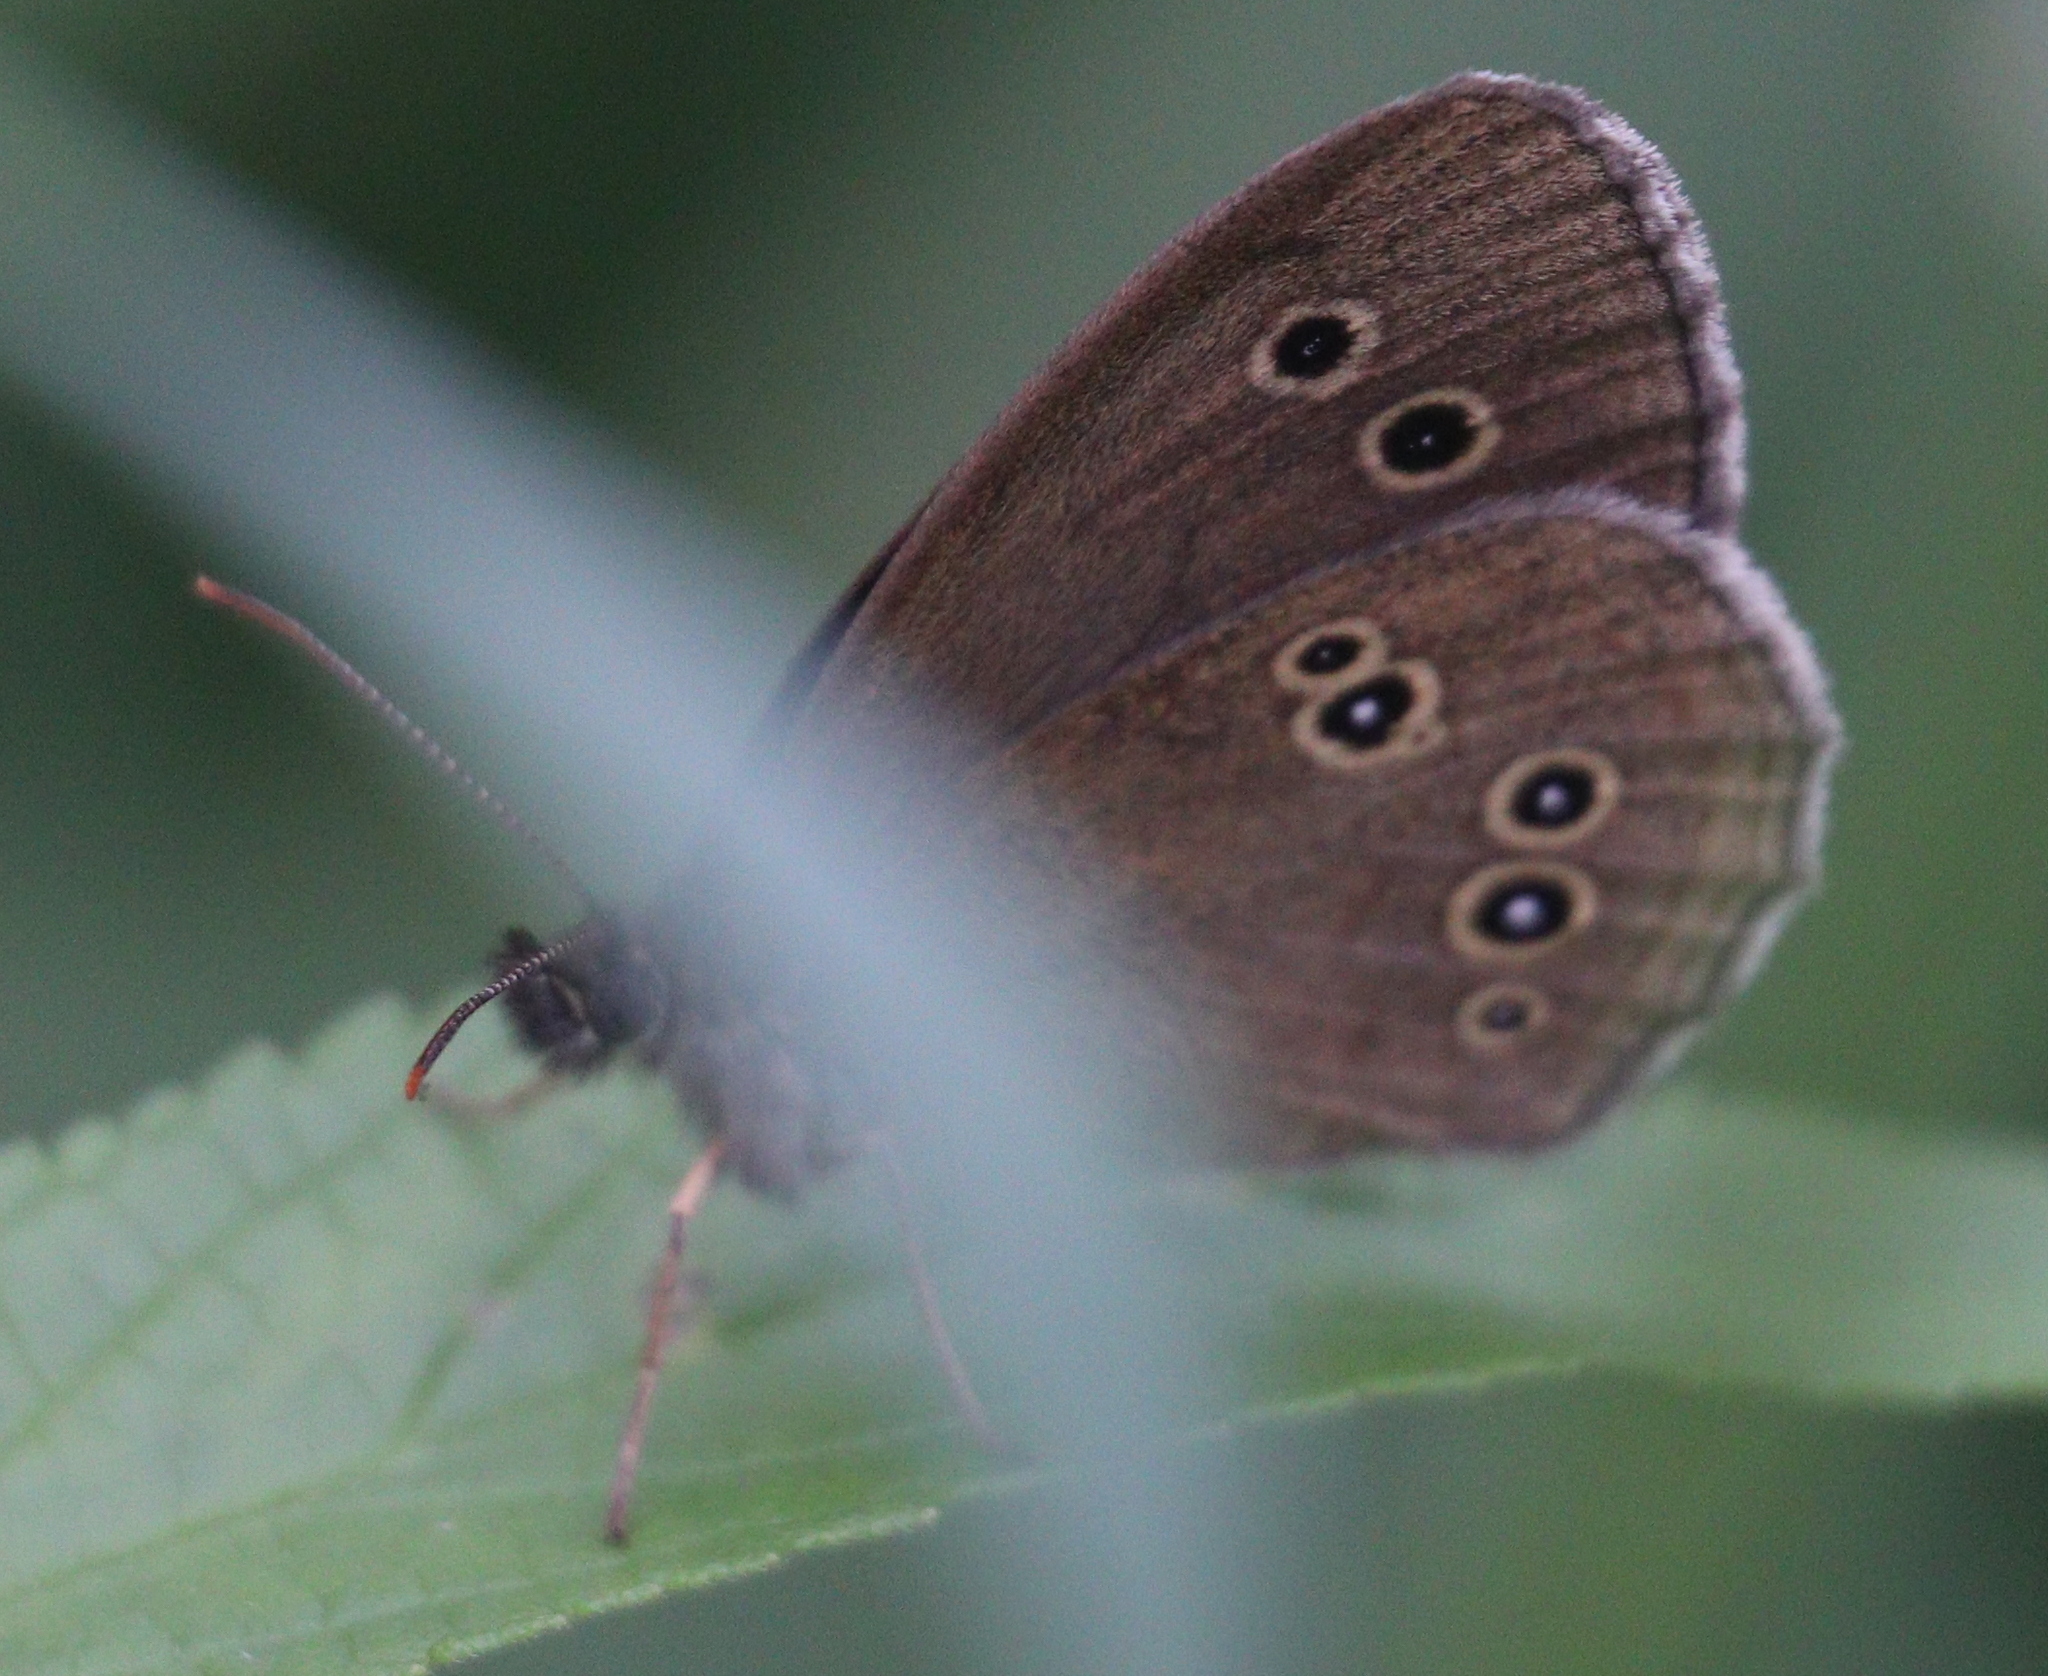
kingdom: Animalia
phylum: Arthropoda
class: Insecta
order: Lepidoptera
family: Nymphalidae
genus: Aphantopus
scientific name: Aphantopus hyperantus
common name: Ringlet
